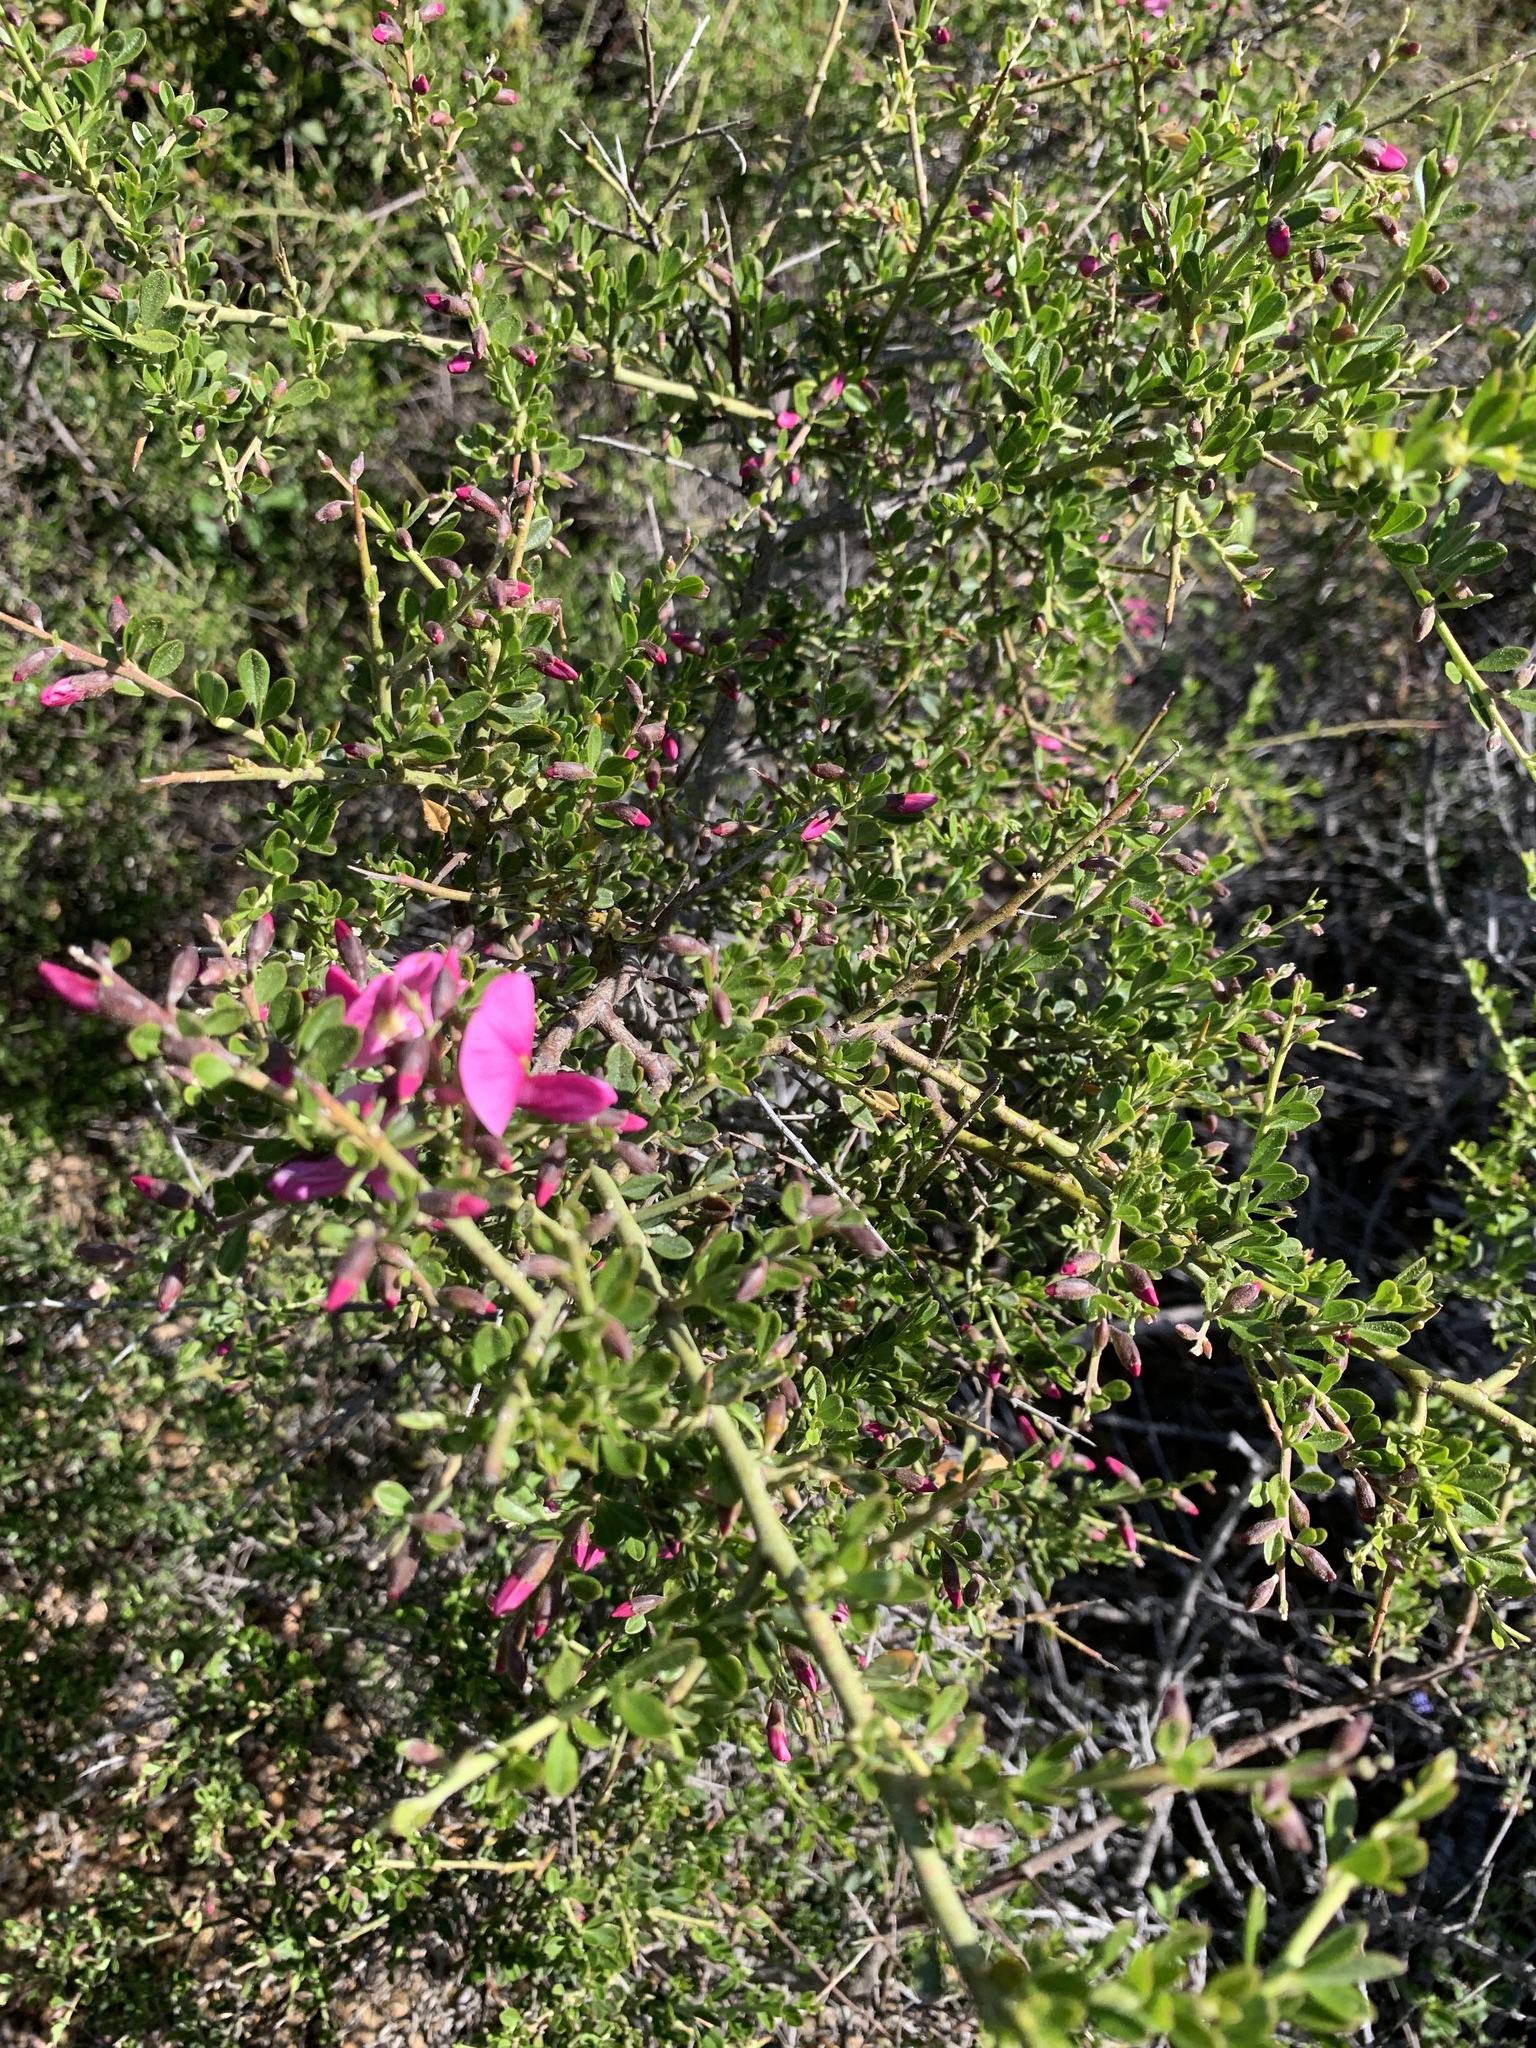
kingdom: Plantae
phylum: Tracheophyta
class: Magnoliopsida
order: Fabales
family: Fabaceae
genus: Pickeringia
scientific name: Pickeringia montana
